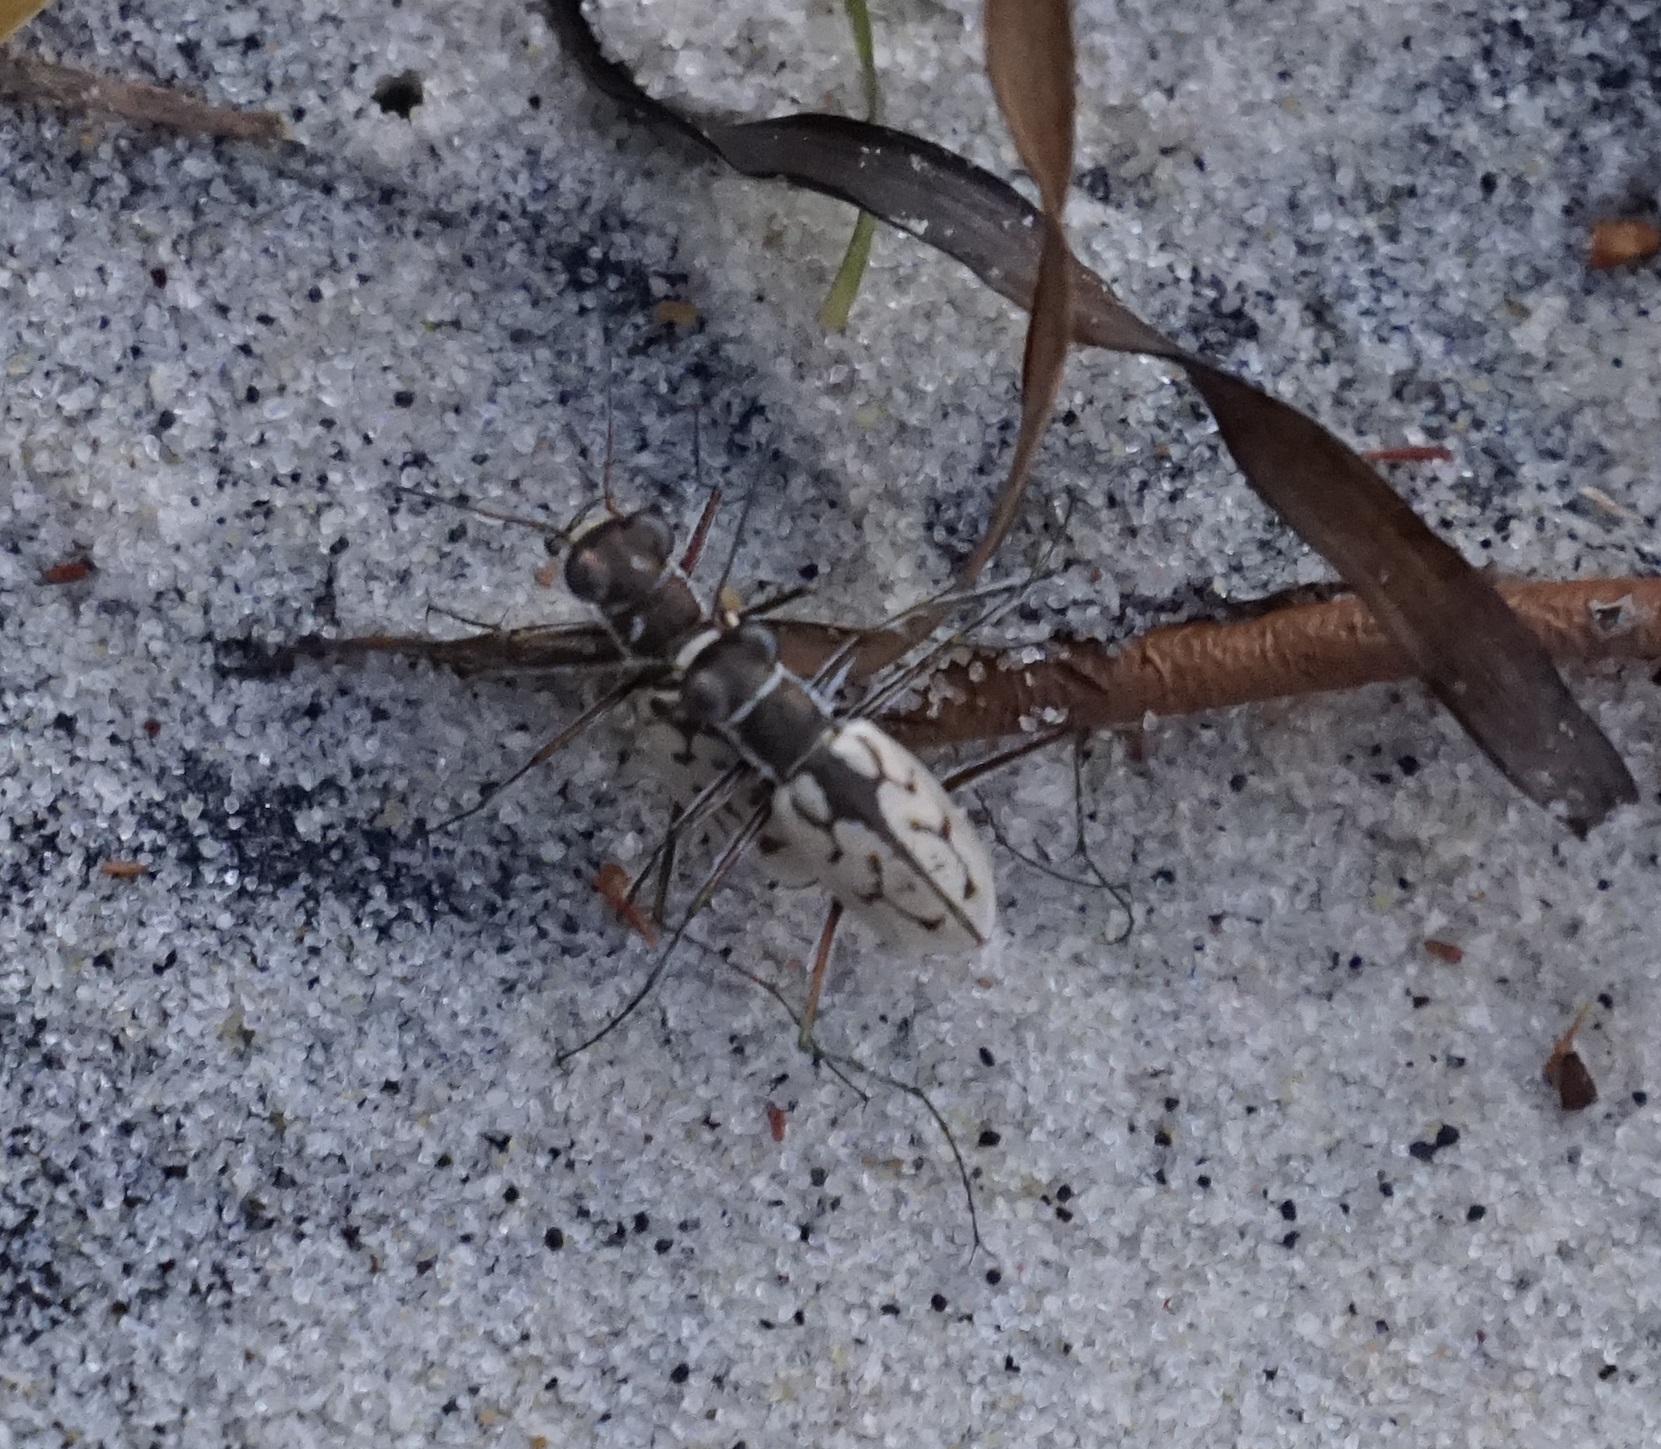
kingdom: Animalia
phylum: Arthropoda
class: Insecta
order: Coleoptera
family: Carabidae
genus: Hypaetha
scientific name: Hypaetha upsilon
